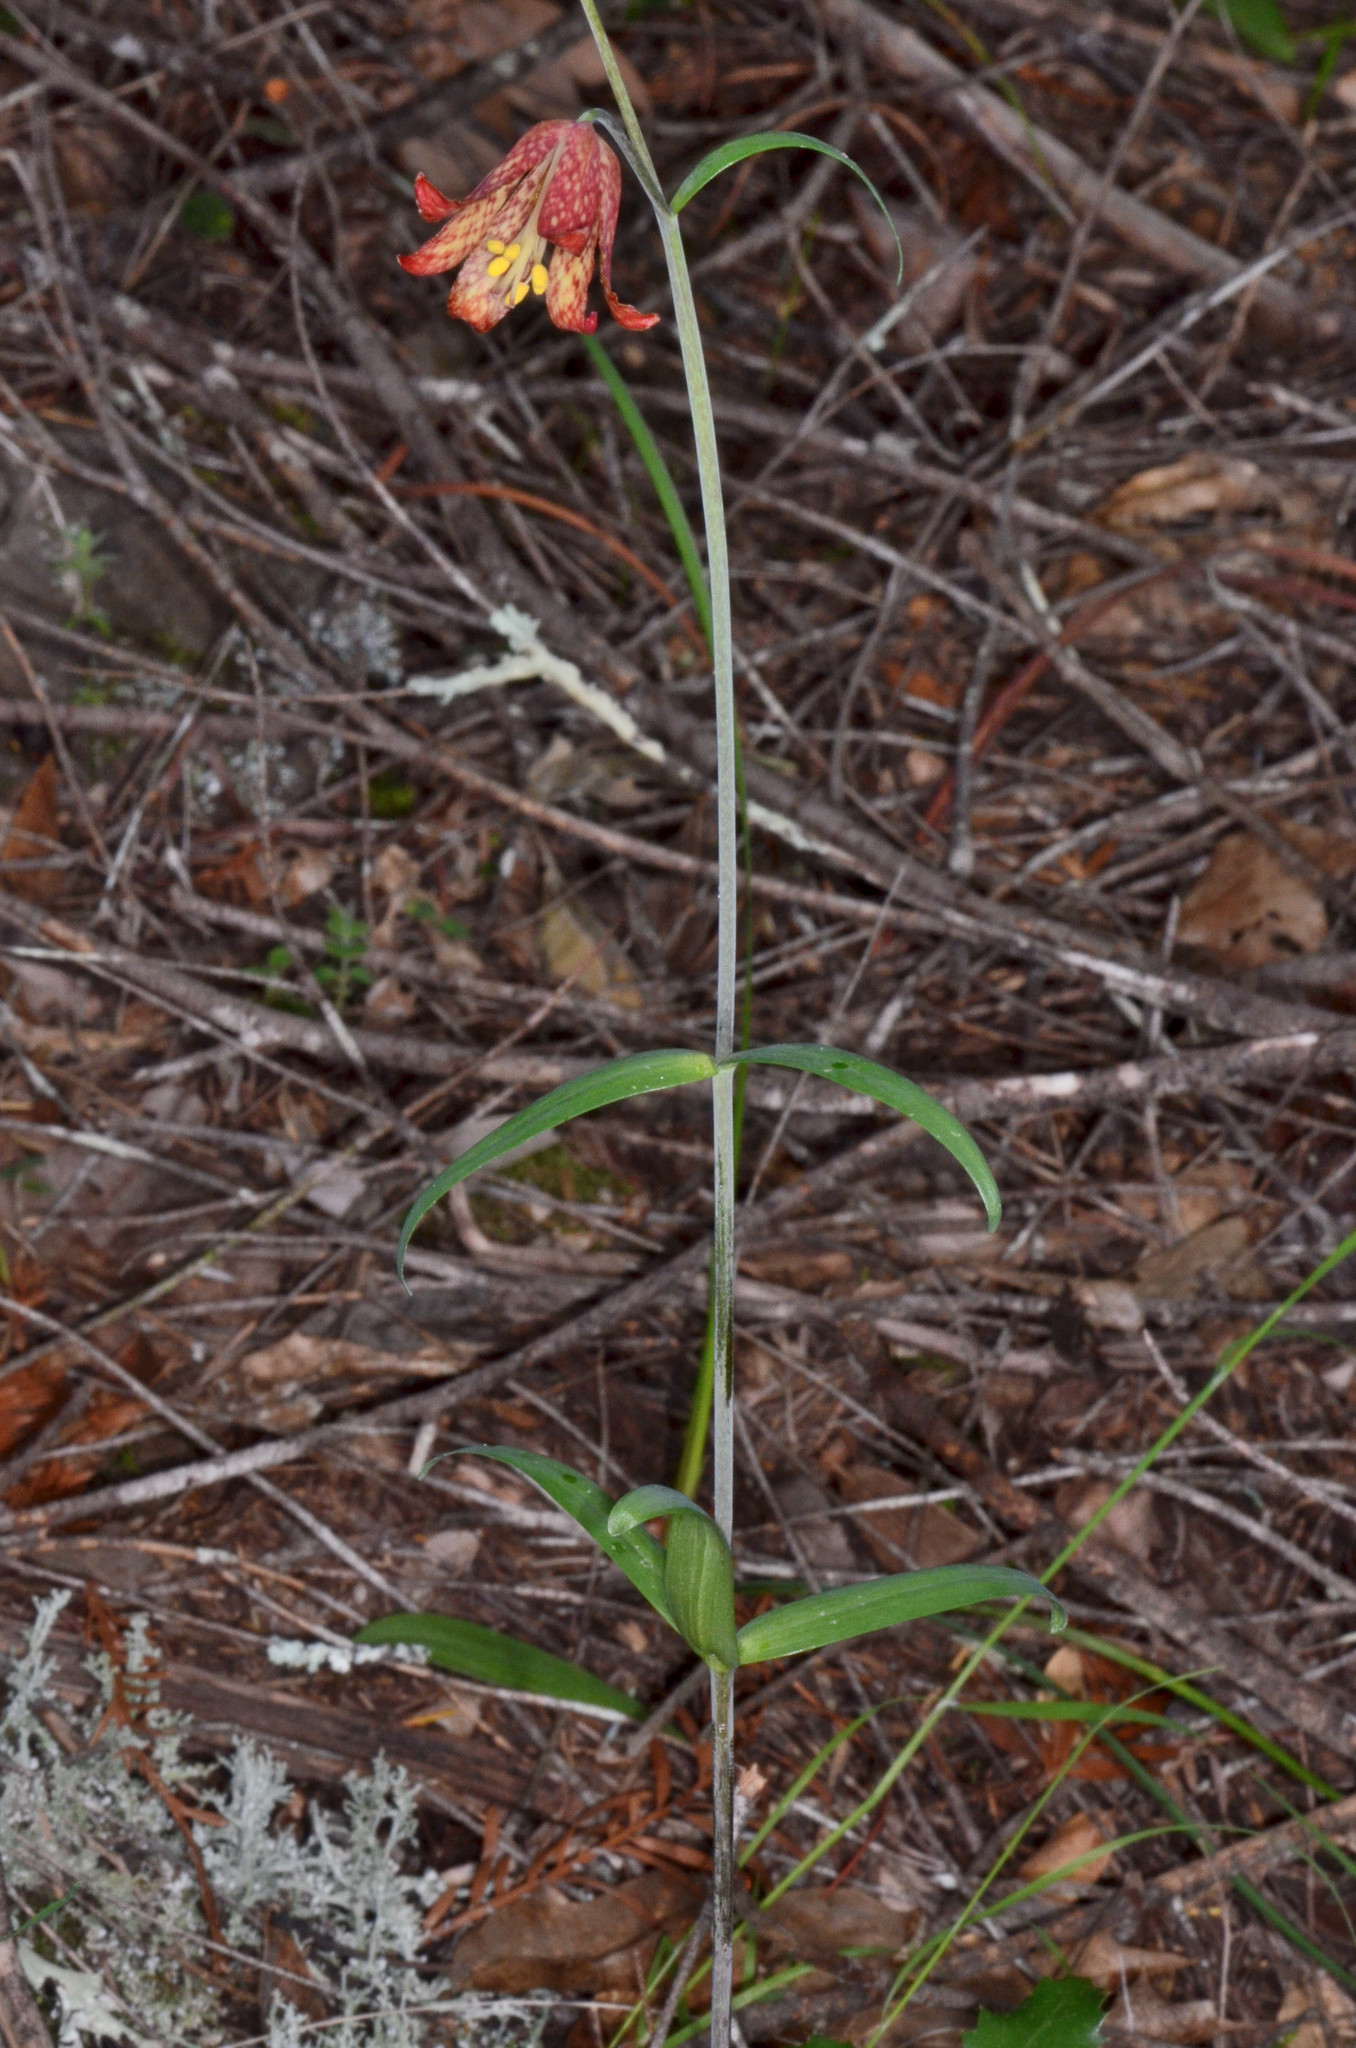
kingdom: Plantae
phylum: Tracheophyta
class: Liliopsida
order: Liliales
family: Liliaceae
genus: Fritillaria
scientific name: Fritillaria recurva
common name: Scarlet fritillary
